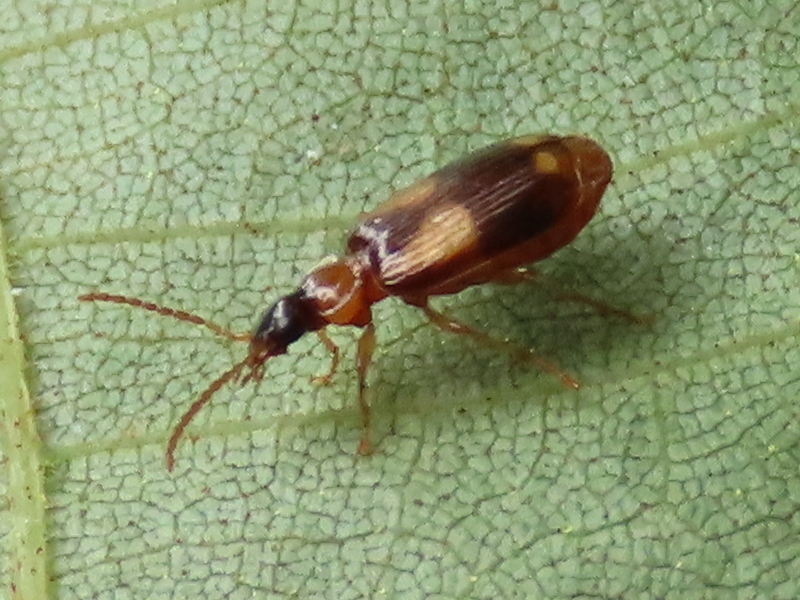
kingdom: Animalia
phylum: Arthropoda
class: Insecta
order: Coleoptera
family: Carabidae
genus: Lebia
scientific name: Lebia ornata
